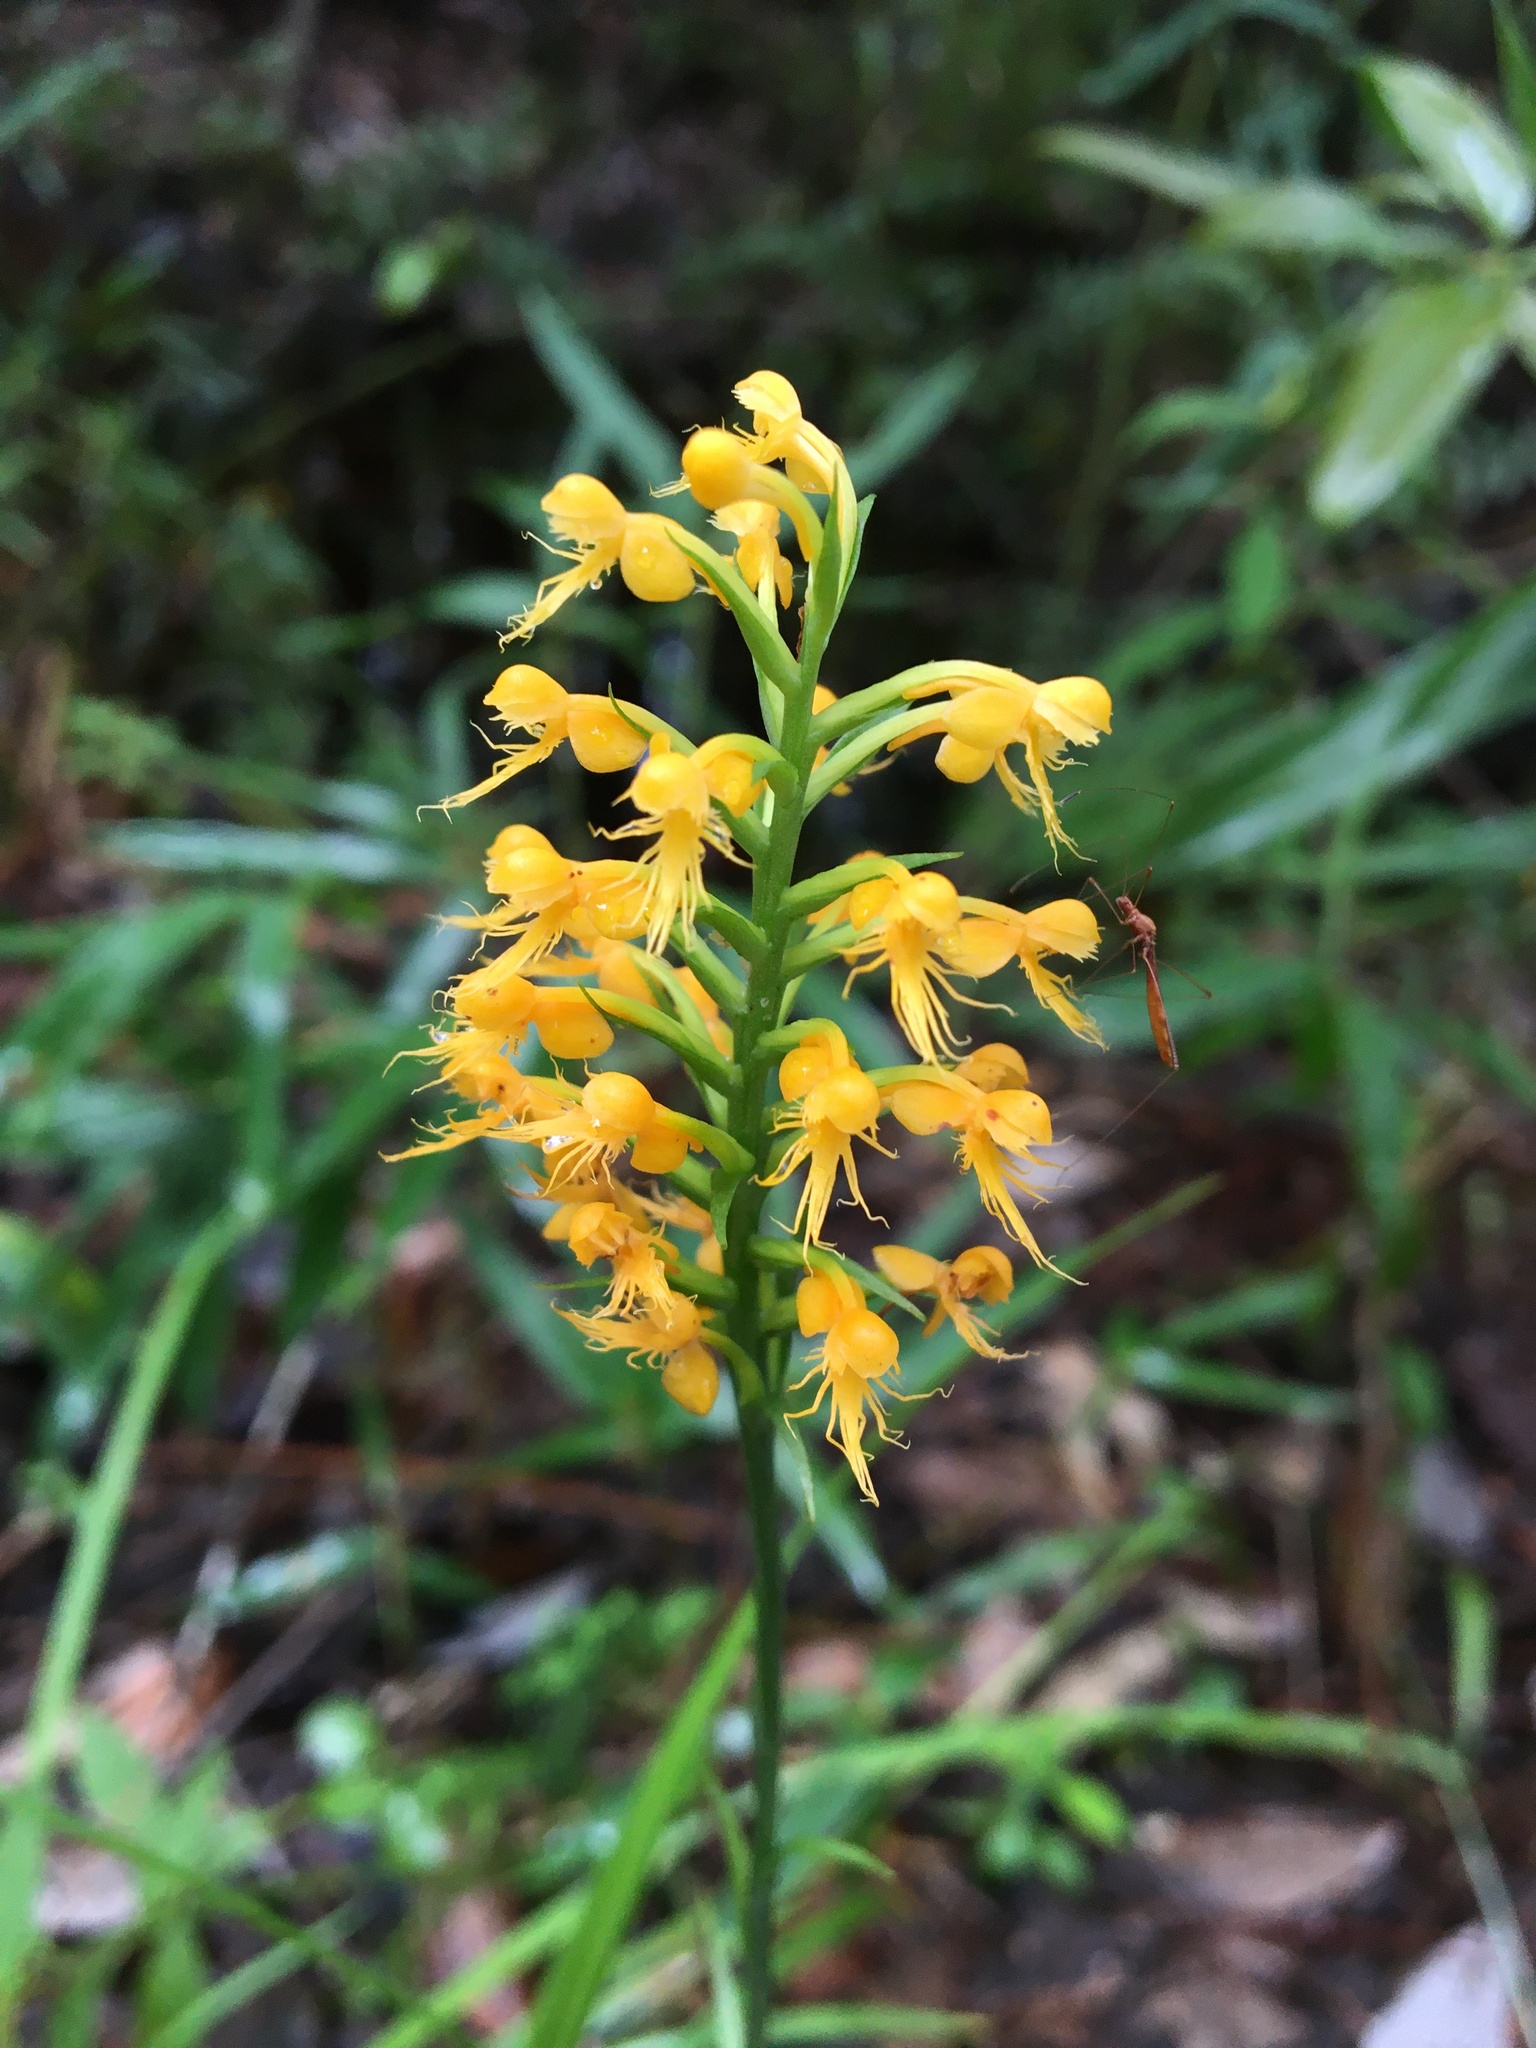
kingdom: Plantae
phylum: Tracheophyta
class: Liliopsida
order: Asparagales
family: Orchidaceae
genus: Platanthera
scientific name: Platanthera cristata
